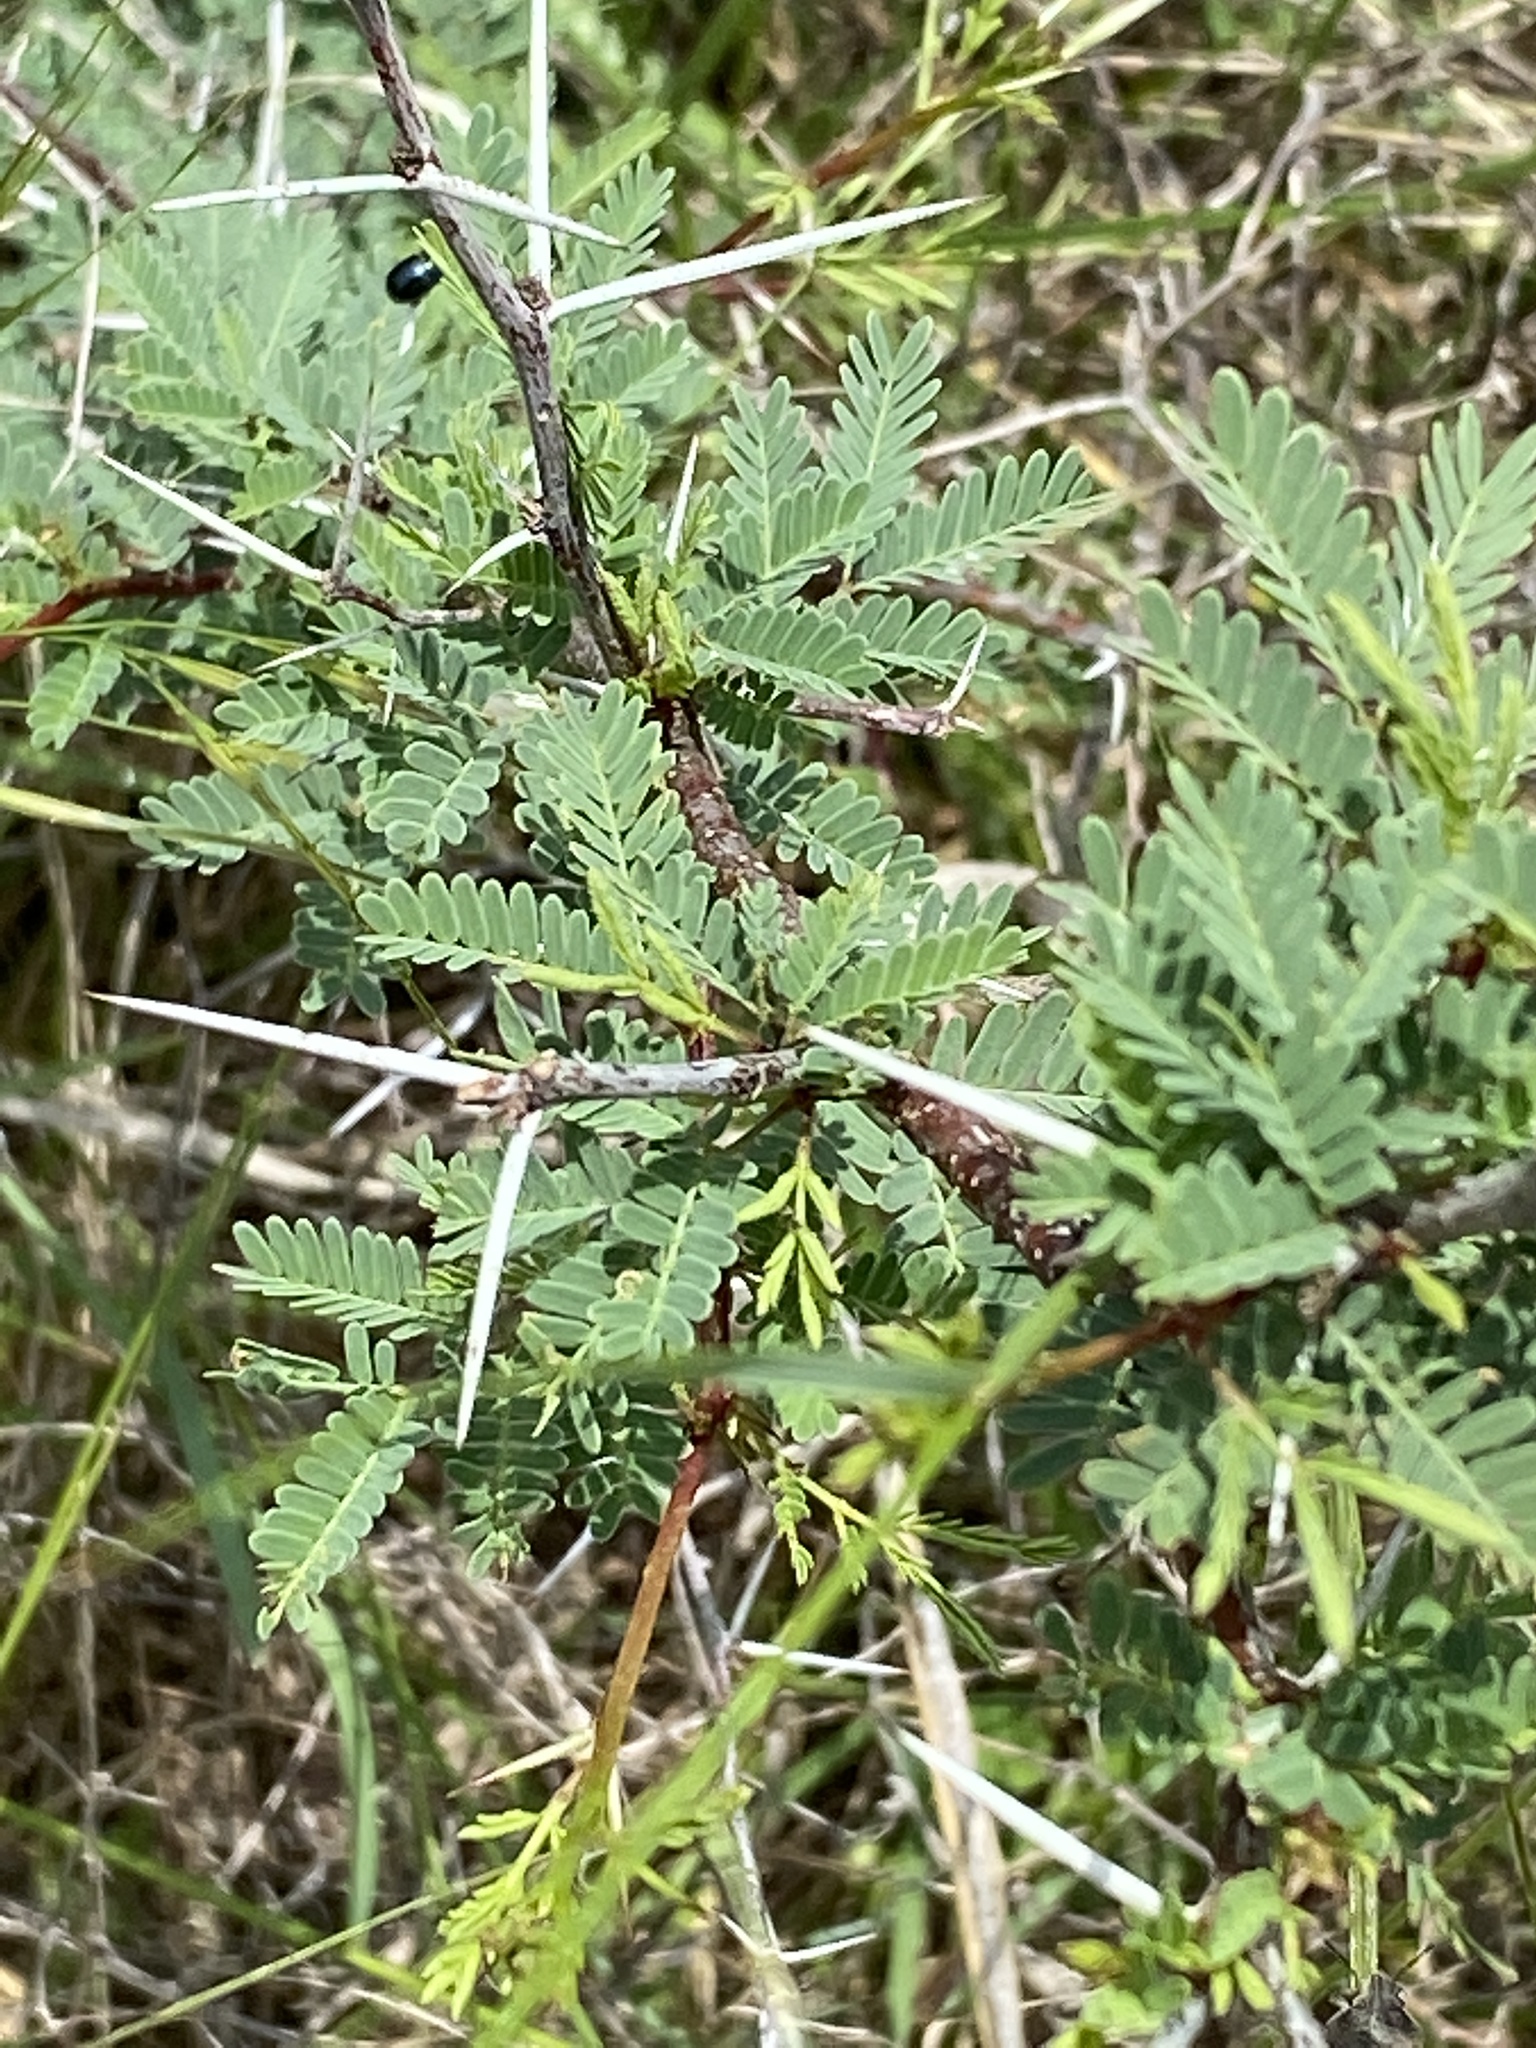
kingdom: Plantae
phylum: Tracheophyta
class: Magnoliopsida
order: Fabales
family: Fabaceae
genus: Vachellia
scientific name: Vachellia farnesiana
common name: Sweet acacia
